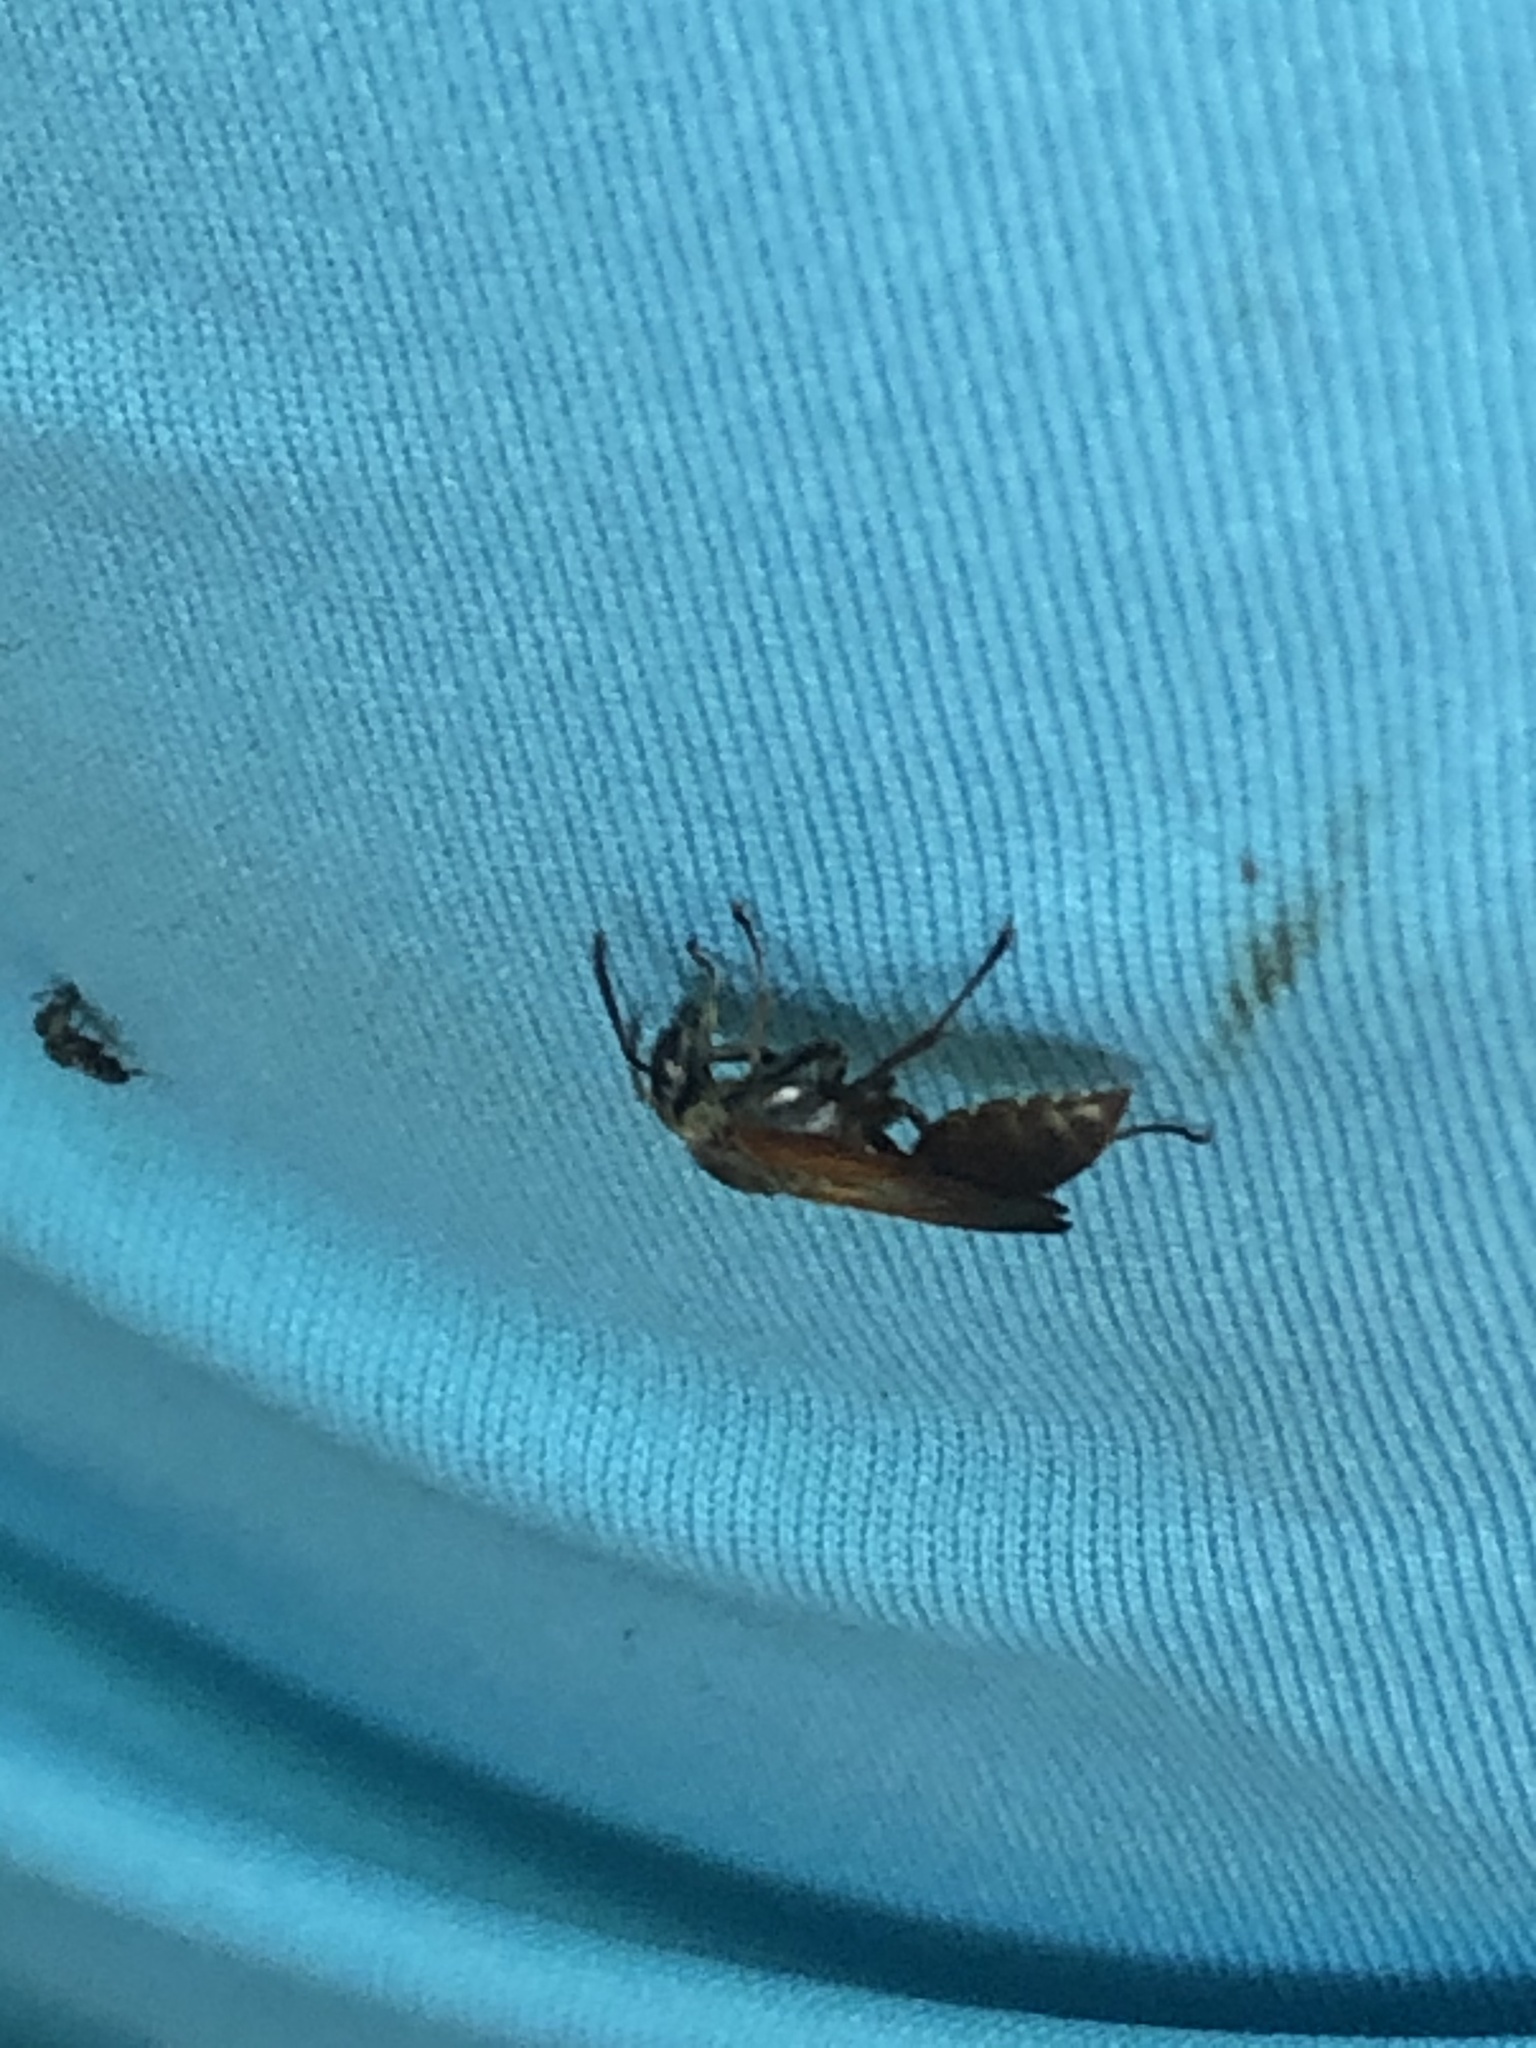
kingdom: Animalia
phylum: Arthropoda
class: Insecta
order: Hymenoptera
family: Eumenidae
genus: Polybia
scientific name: Polybia rejecta
